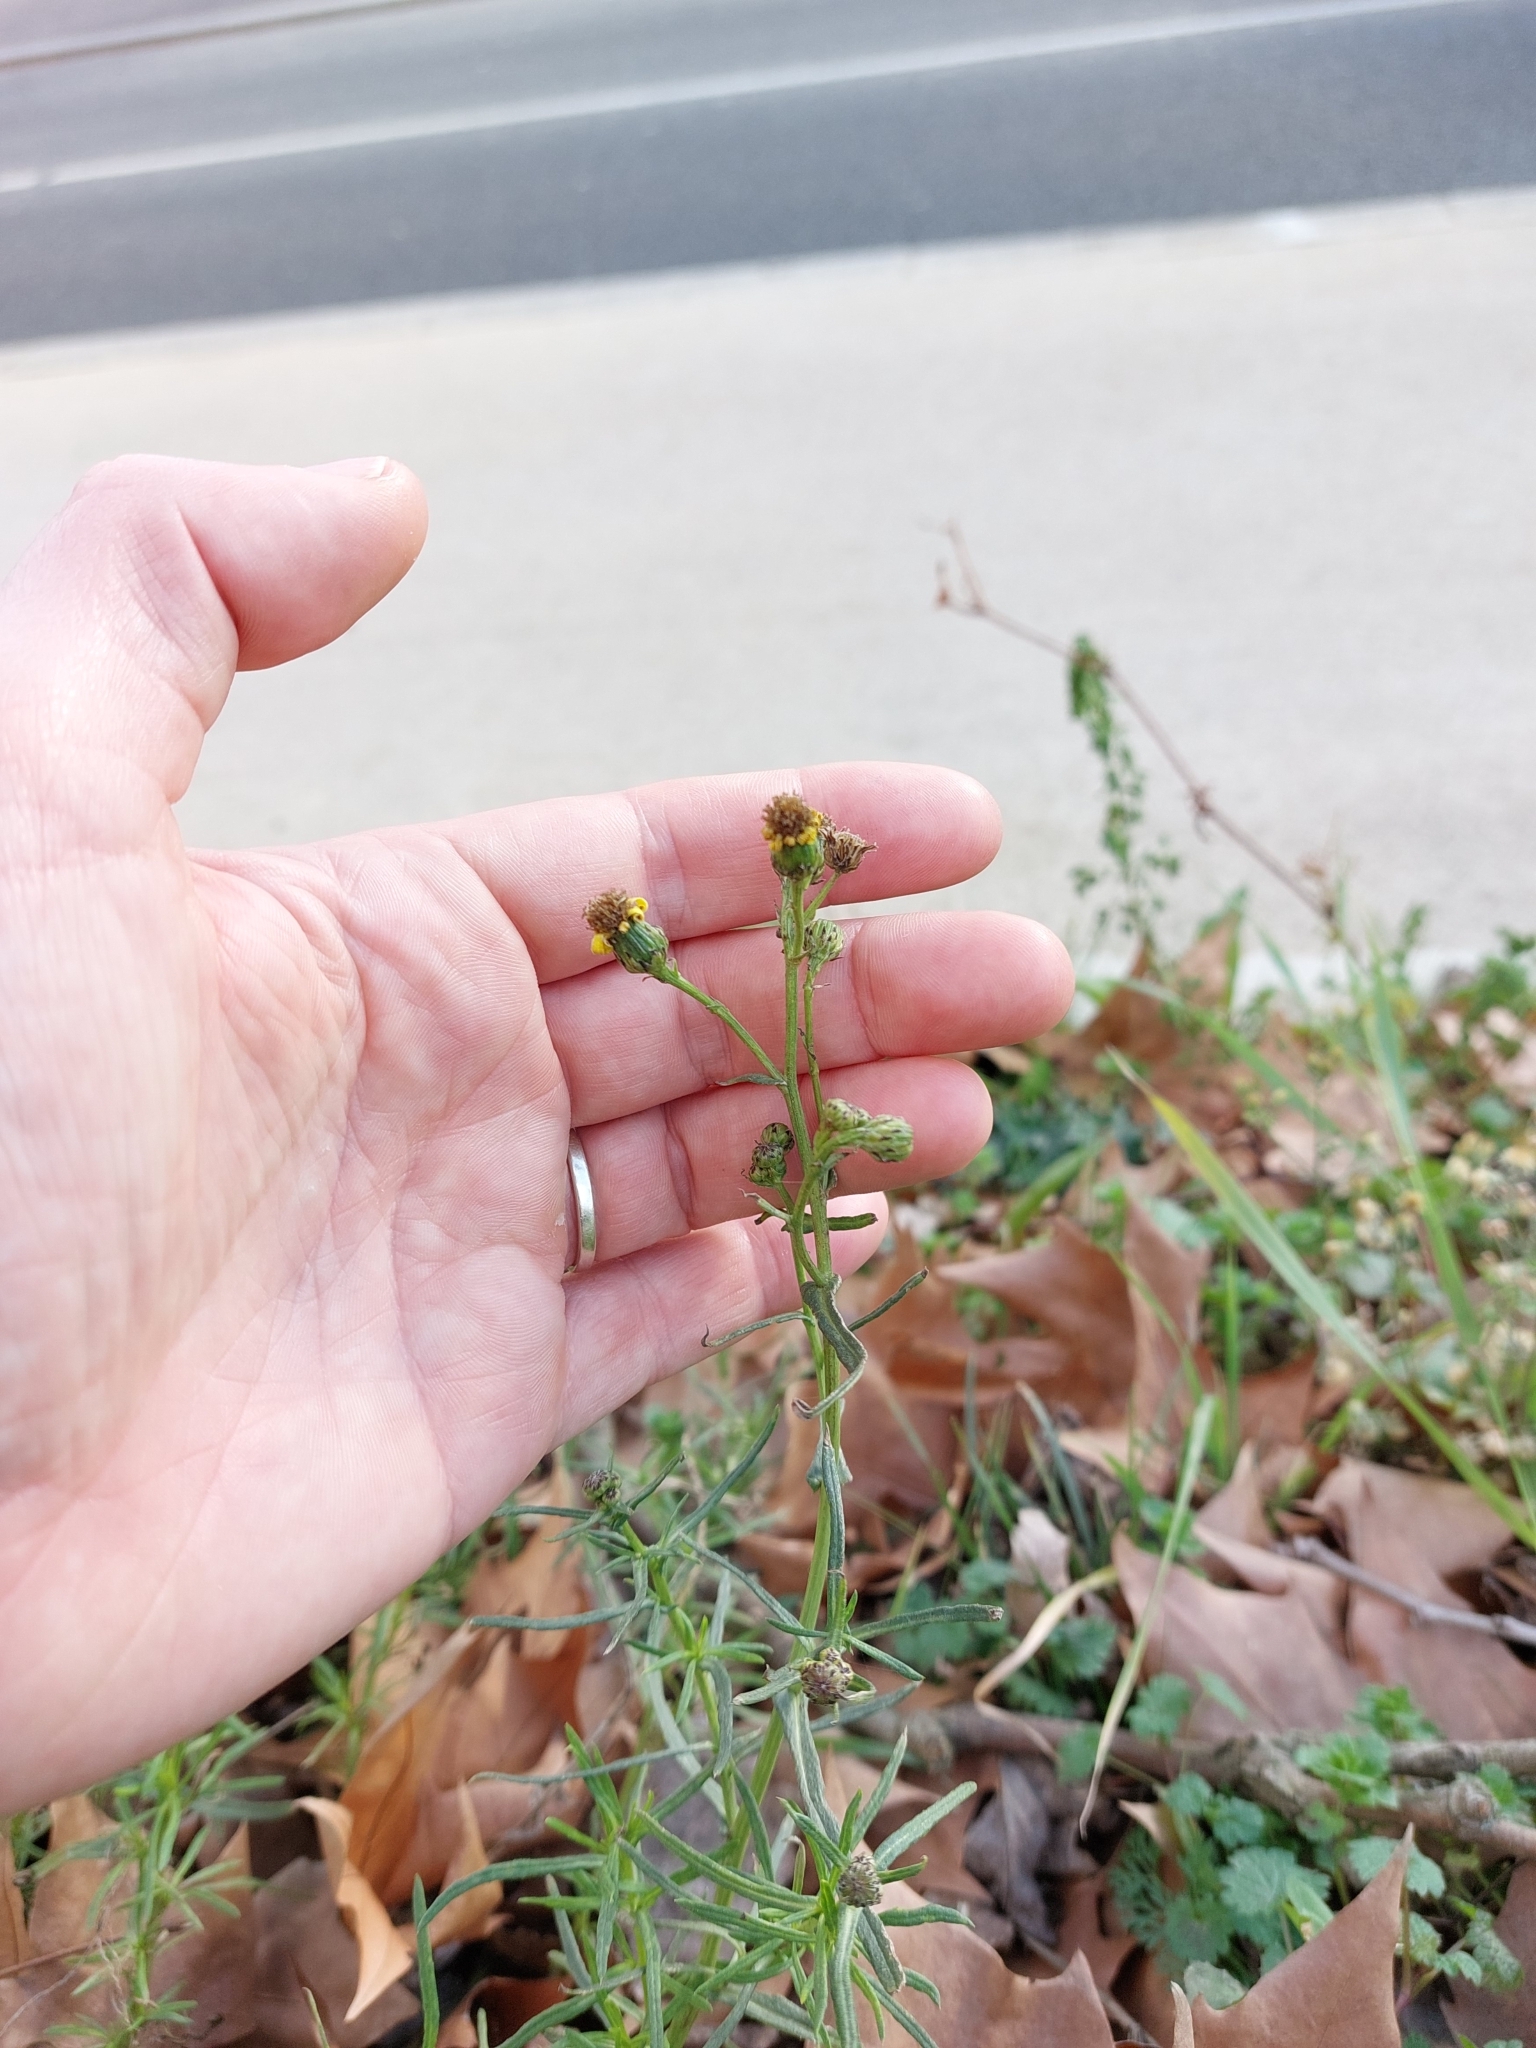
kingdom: Plantae
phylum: Tracheophyta
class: Magnoliopsida
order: Asterales
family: Asteraceae
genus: Senecio
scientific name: Senecio inaequidens
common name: Narrow-leaved ragwort
